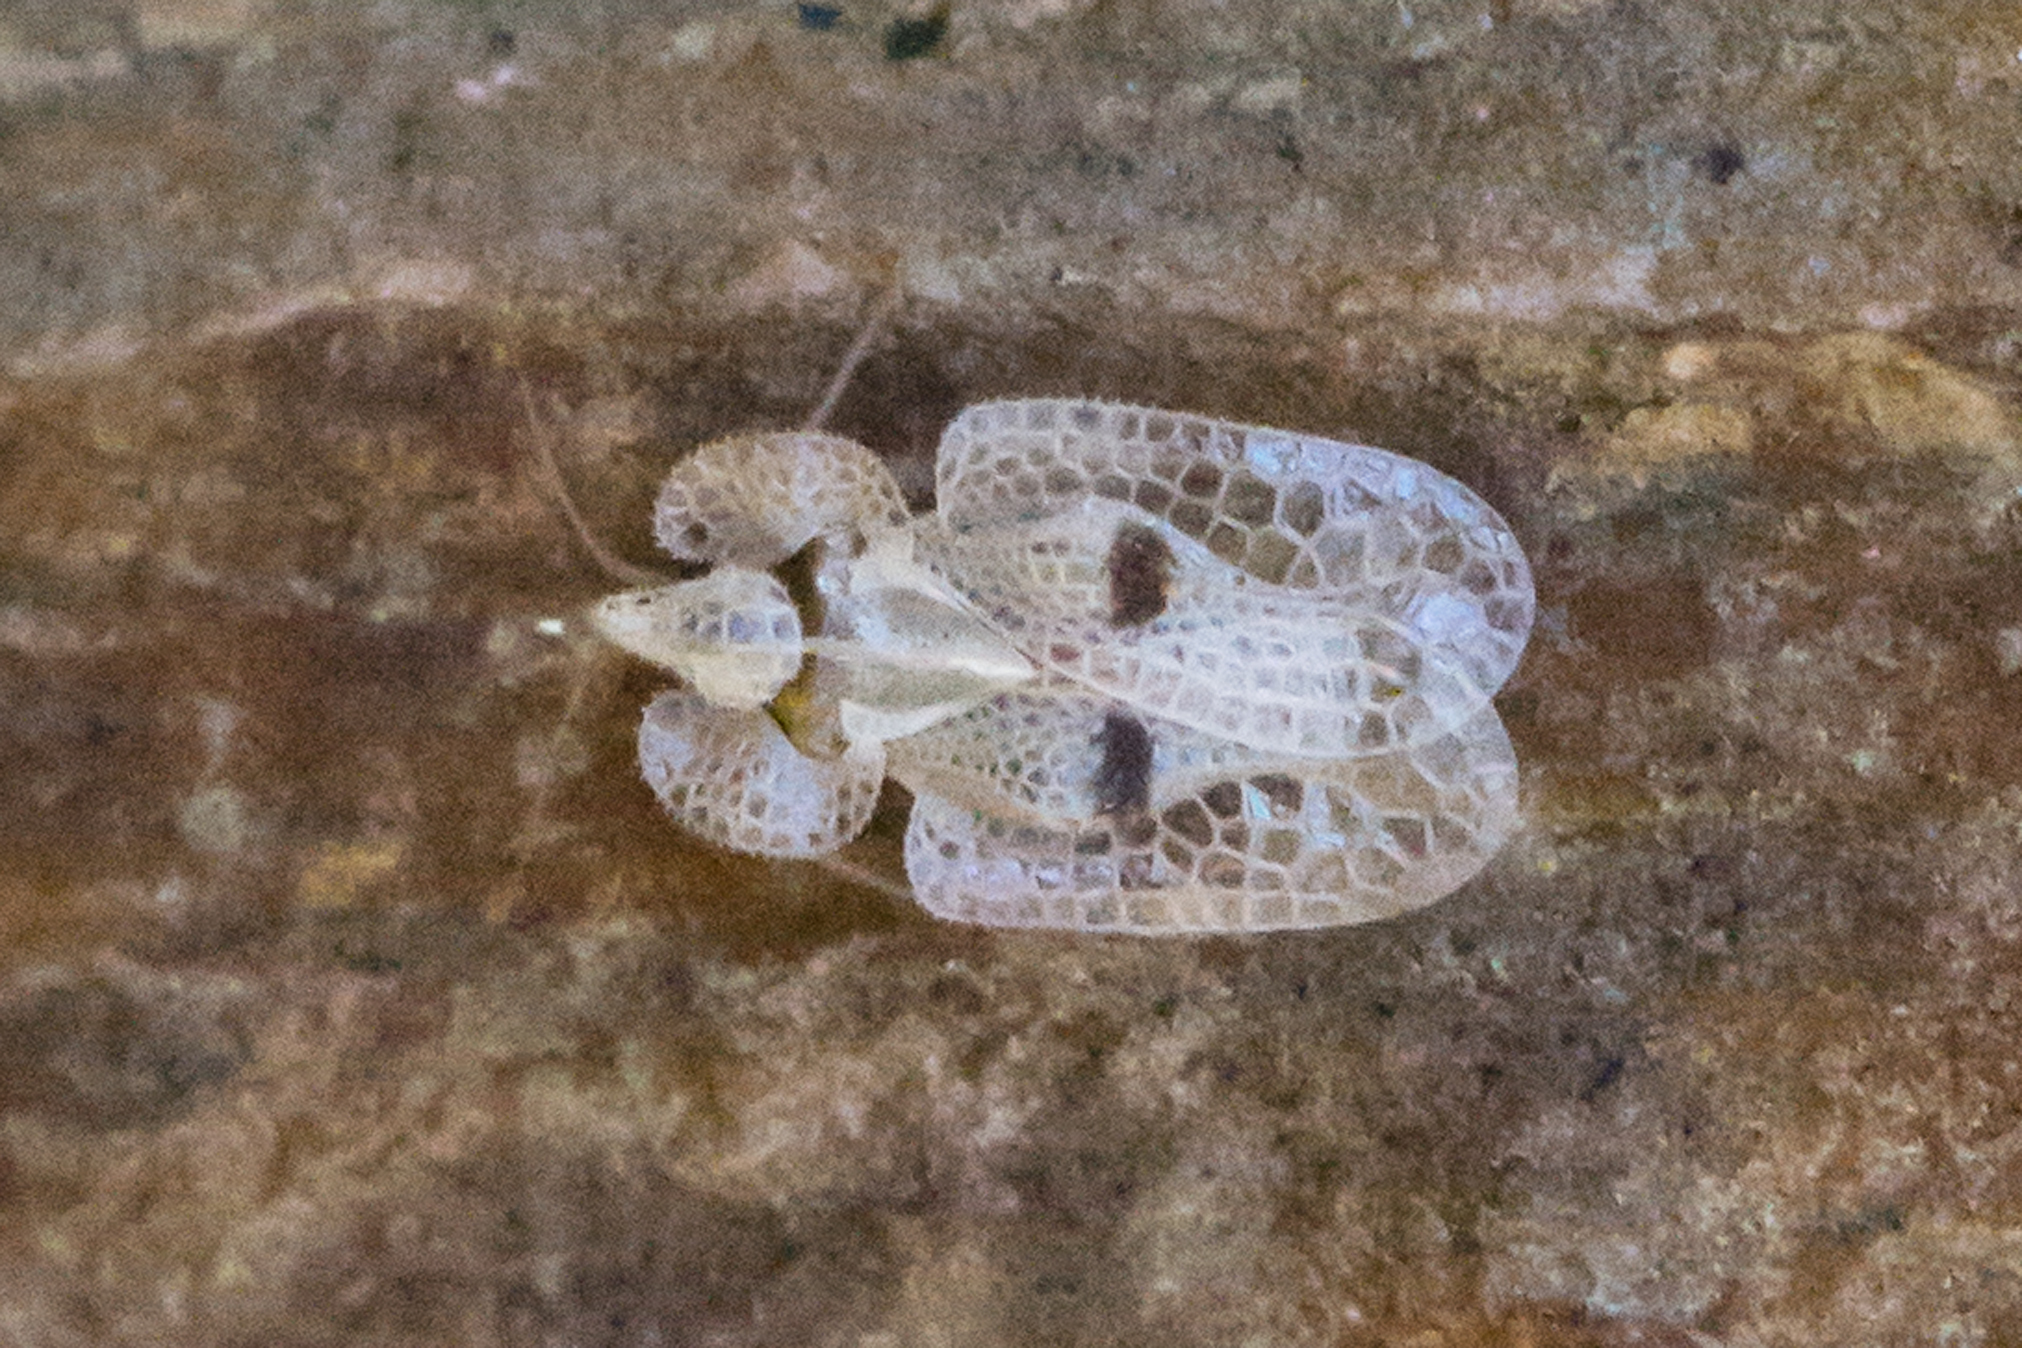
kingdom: Animalia
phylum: Arthropoda
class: Insecta
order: Hemiptera
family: Tingidae
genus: Corythucha
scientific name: Corythucha ciliata
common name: Sycamore lace bug
